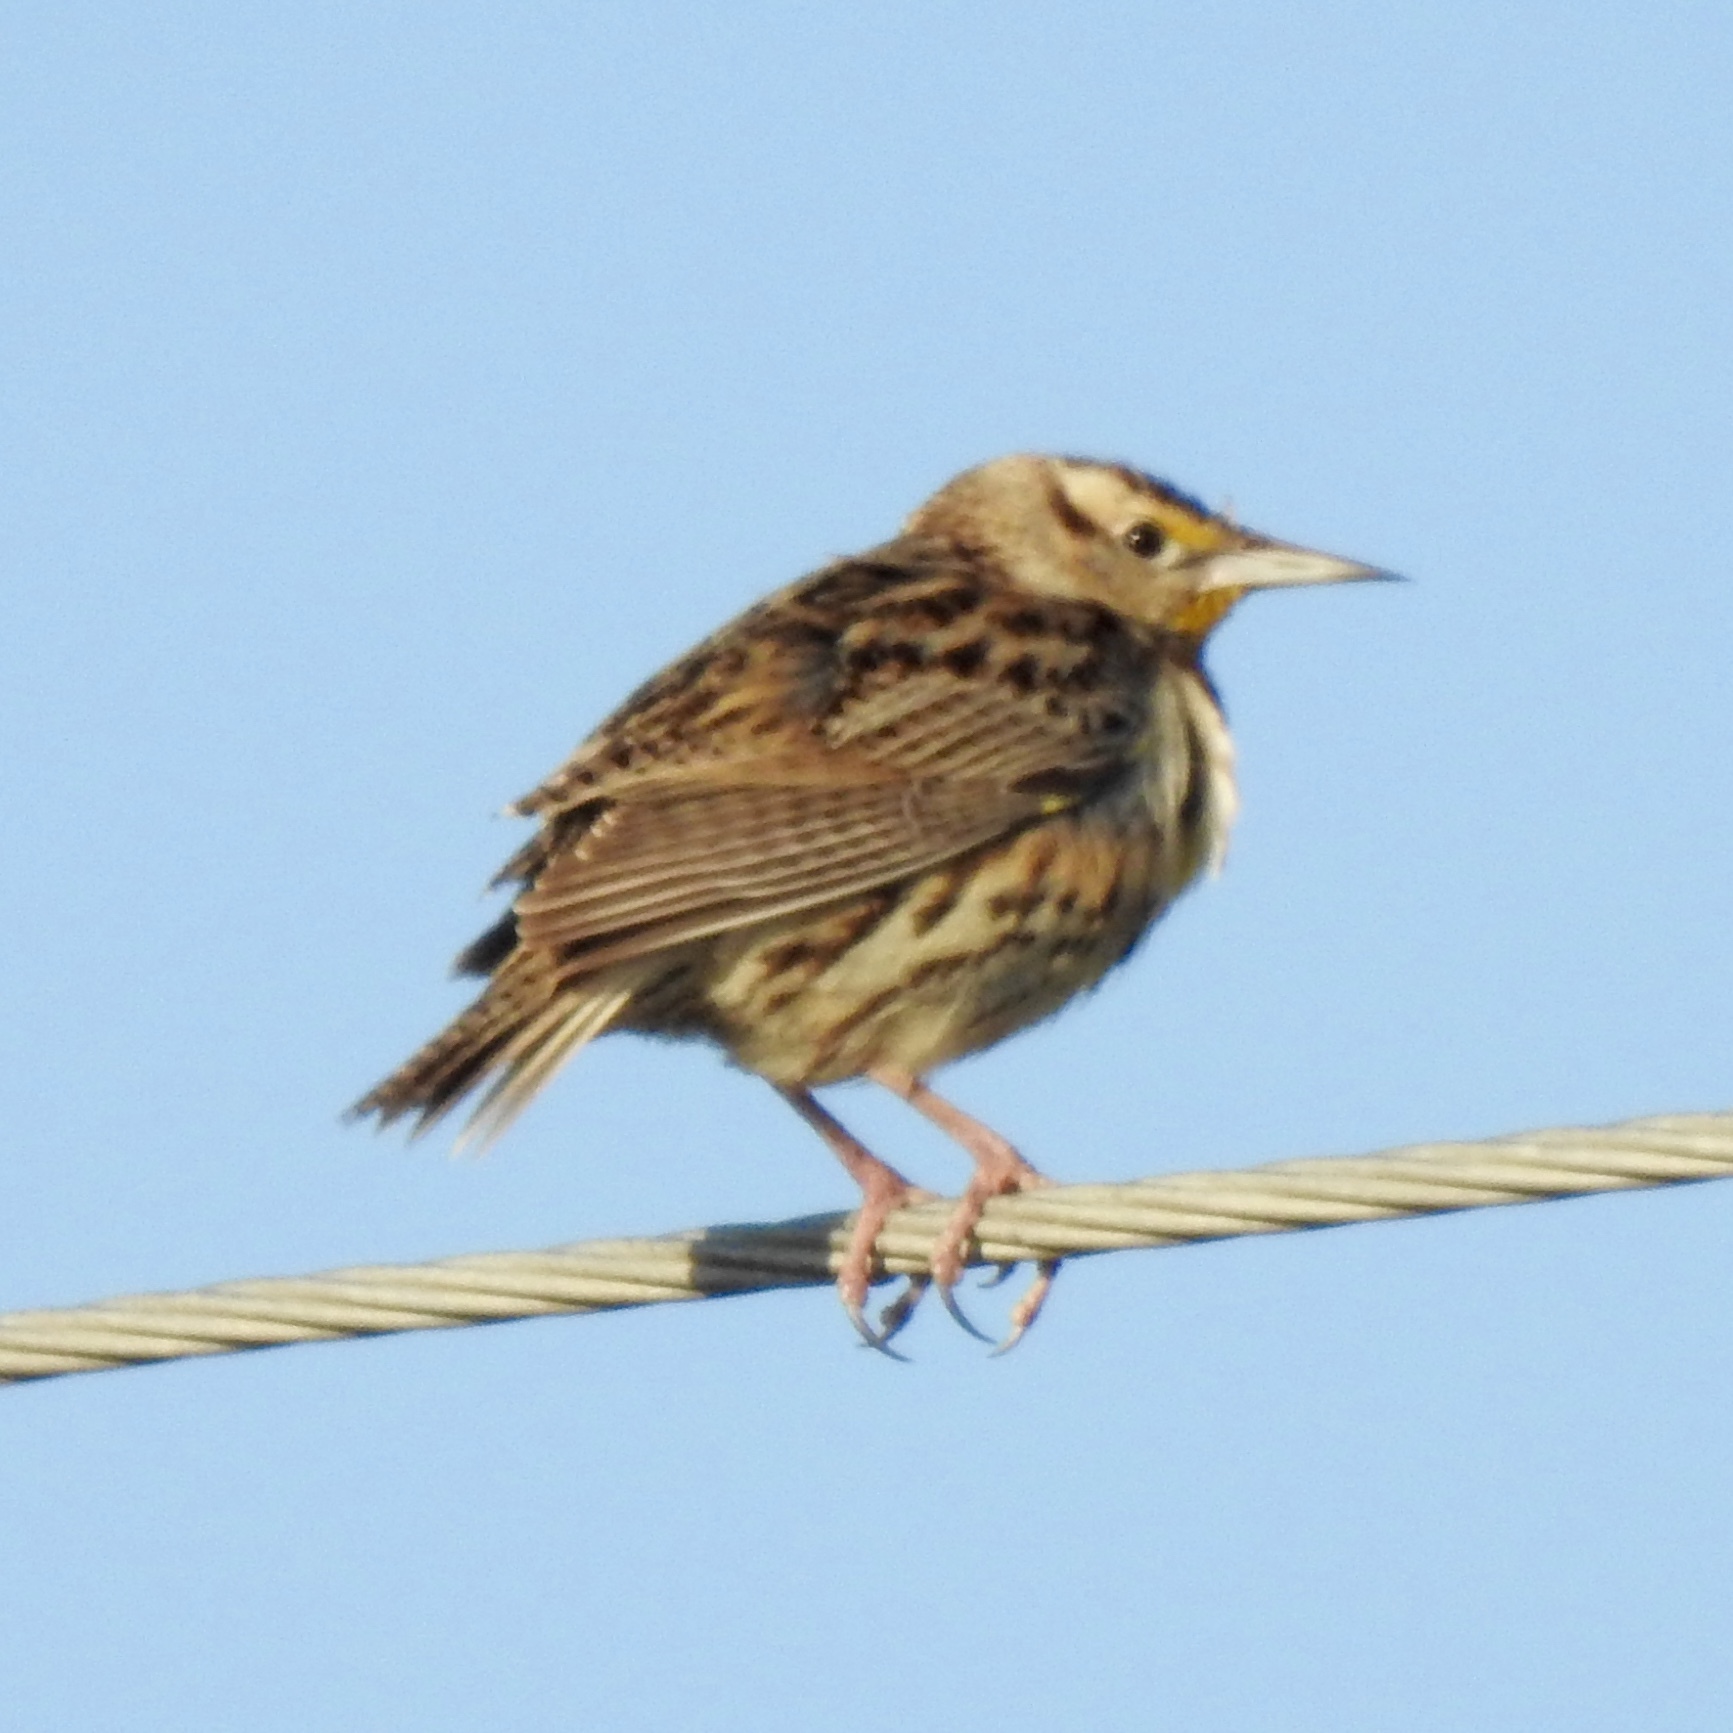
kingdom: Animalia
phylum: Chordata
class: Aves
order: Passeriformes
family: Icteridae
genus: Sturnella
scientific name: Sturnella magna
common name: Eastern meadowlark
